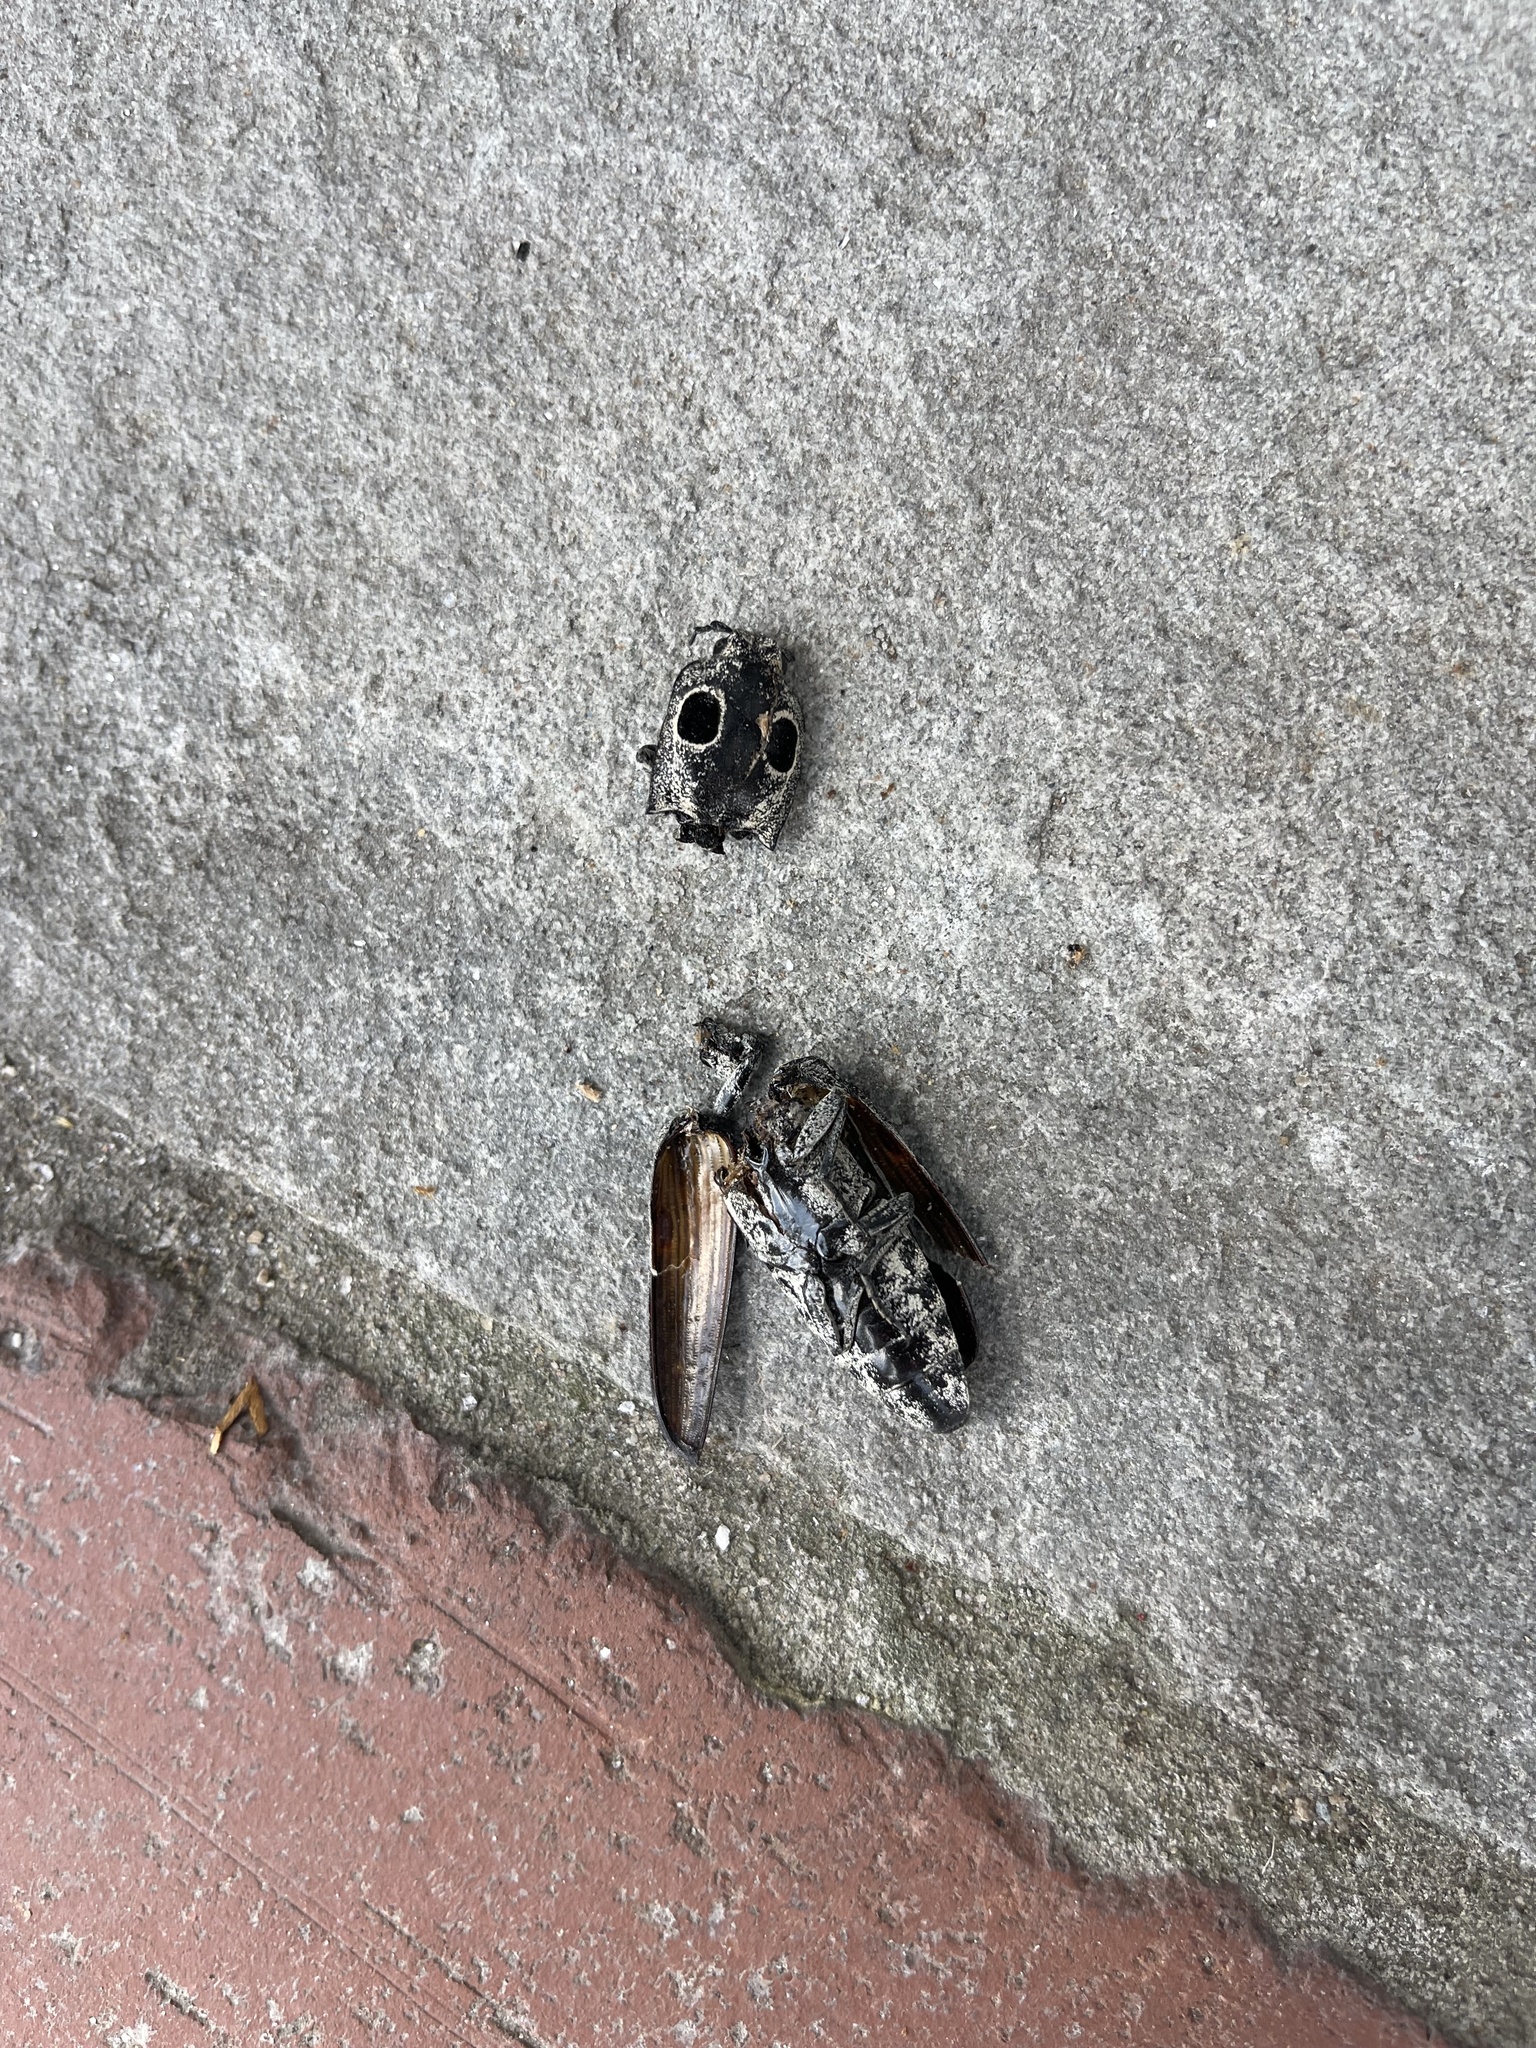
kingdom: Animalia
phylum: Arthropoda
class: Insecta
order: Coleoptera
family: Elateridae
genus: Alaus
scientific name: Alaus oculatus
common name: Eastern eyed click beetle
